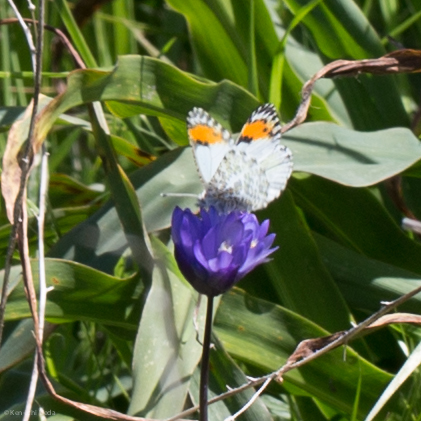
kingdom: Animalia
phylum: Arthropoda
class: Insecta
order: Lepidoptera
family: Pieridae
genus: Anthocharis
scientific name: Anthocharis sara
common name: Sara's orangetip
